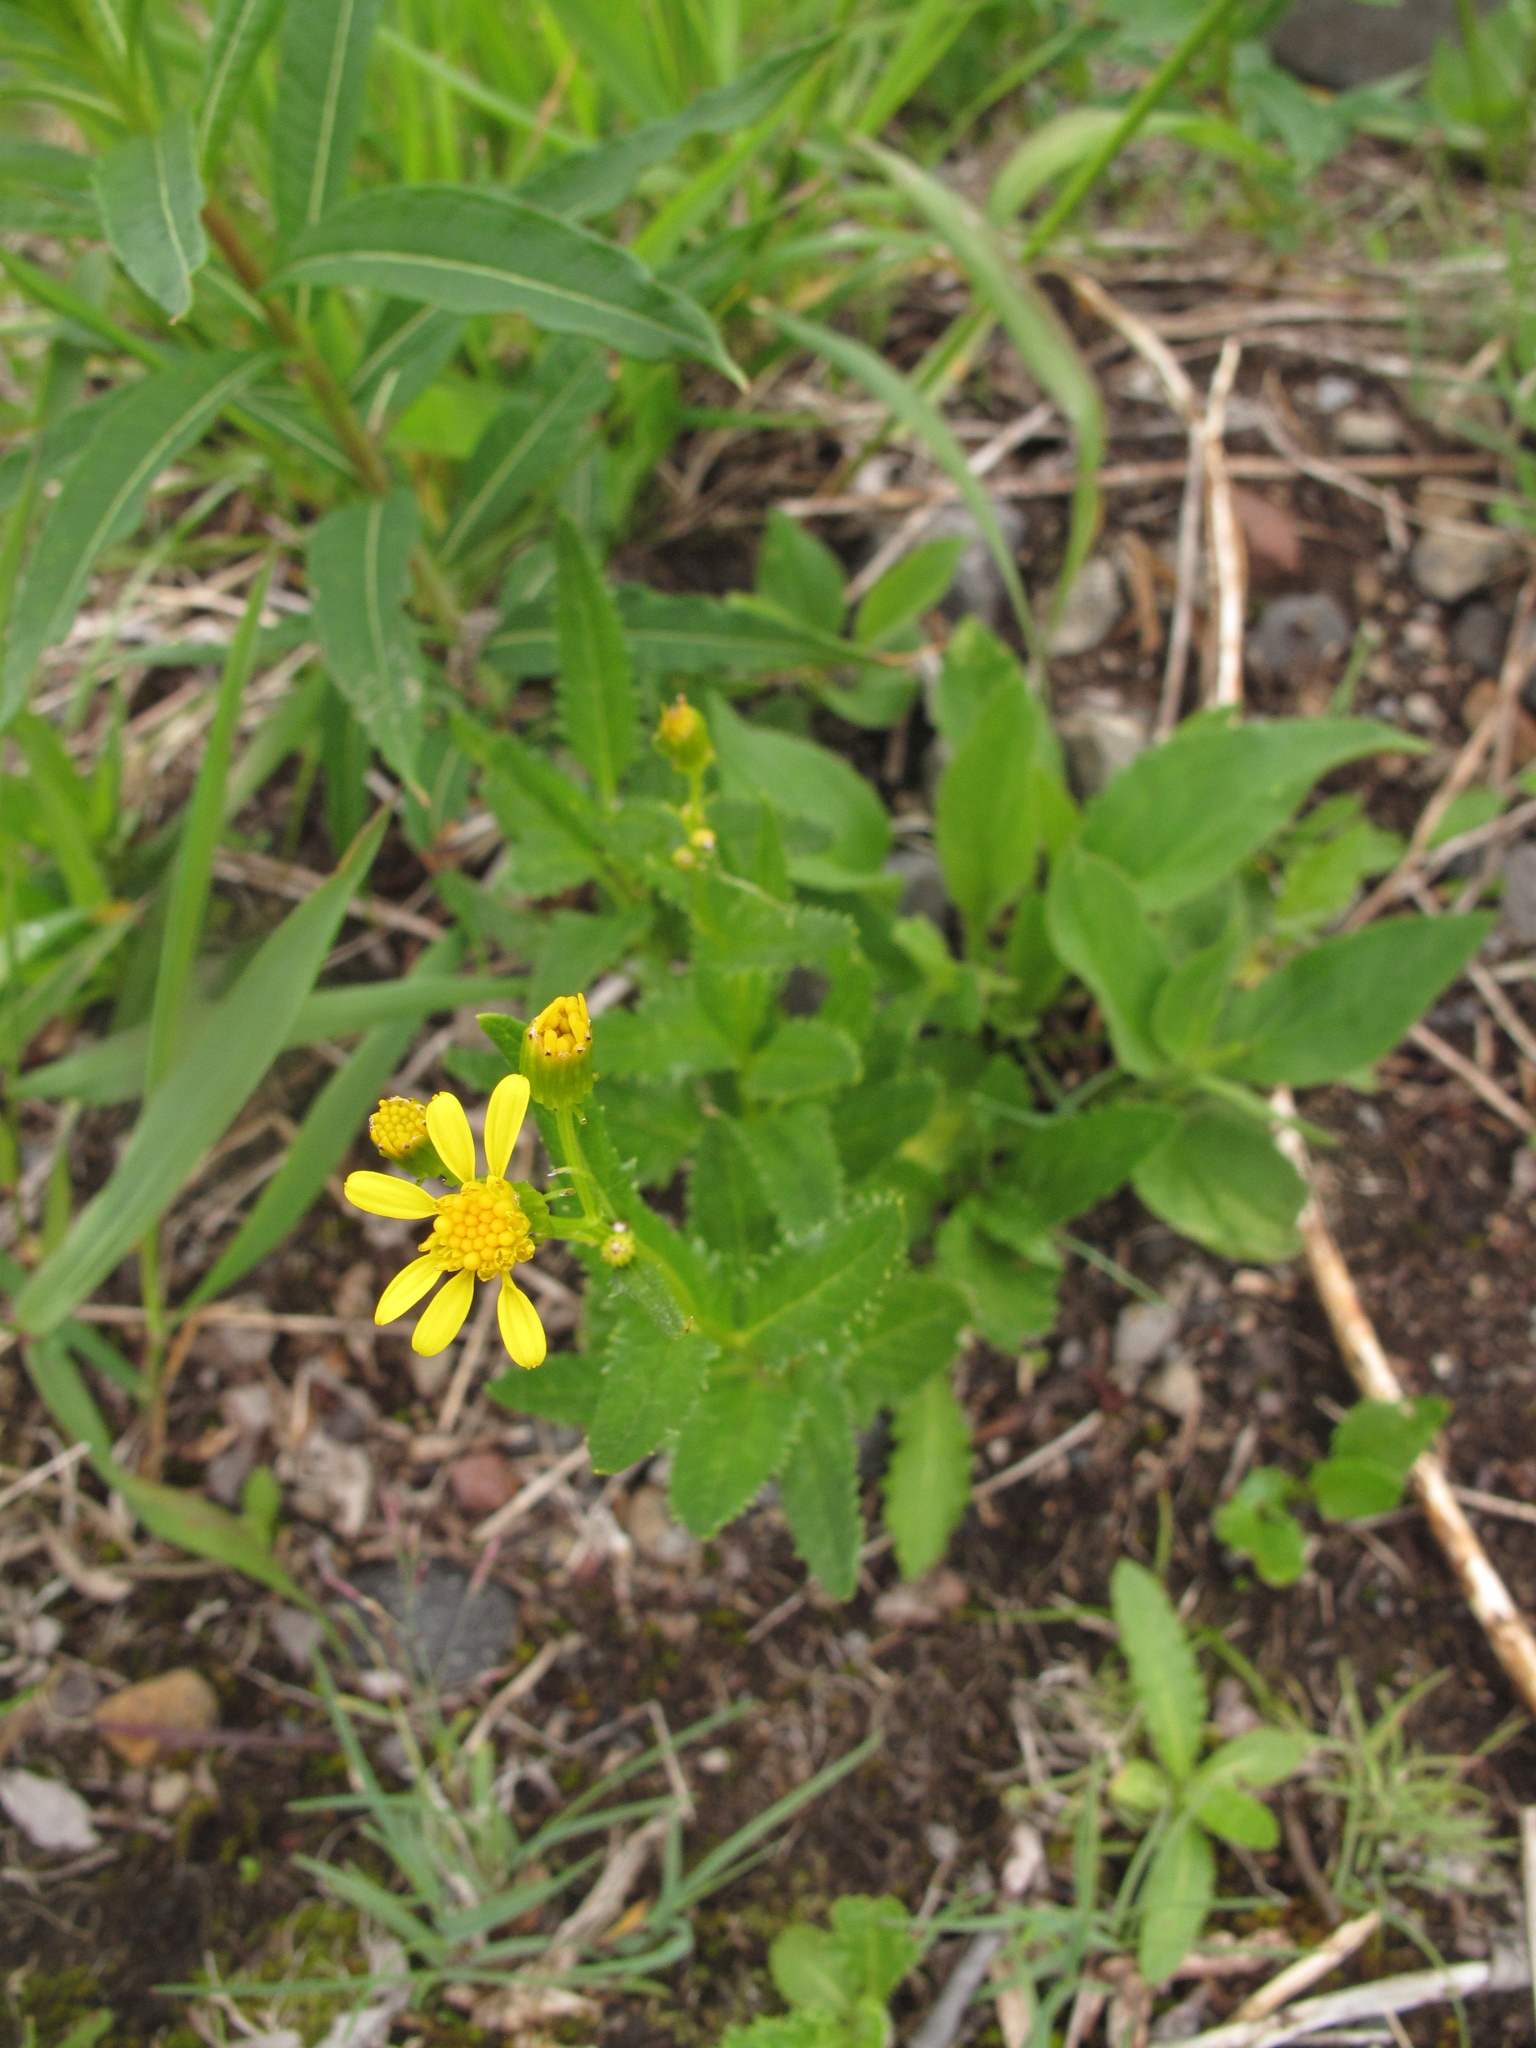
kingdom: Plantae
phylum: Tracheophyta
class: Magnoliopsida
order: Asterales
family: Asteraceae
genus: Senecio
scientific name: Senecio triangularis
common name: Arrowleaf butterweed
